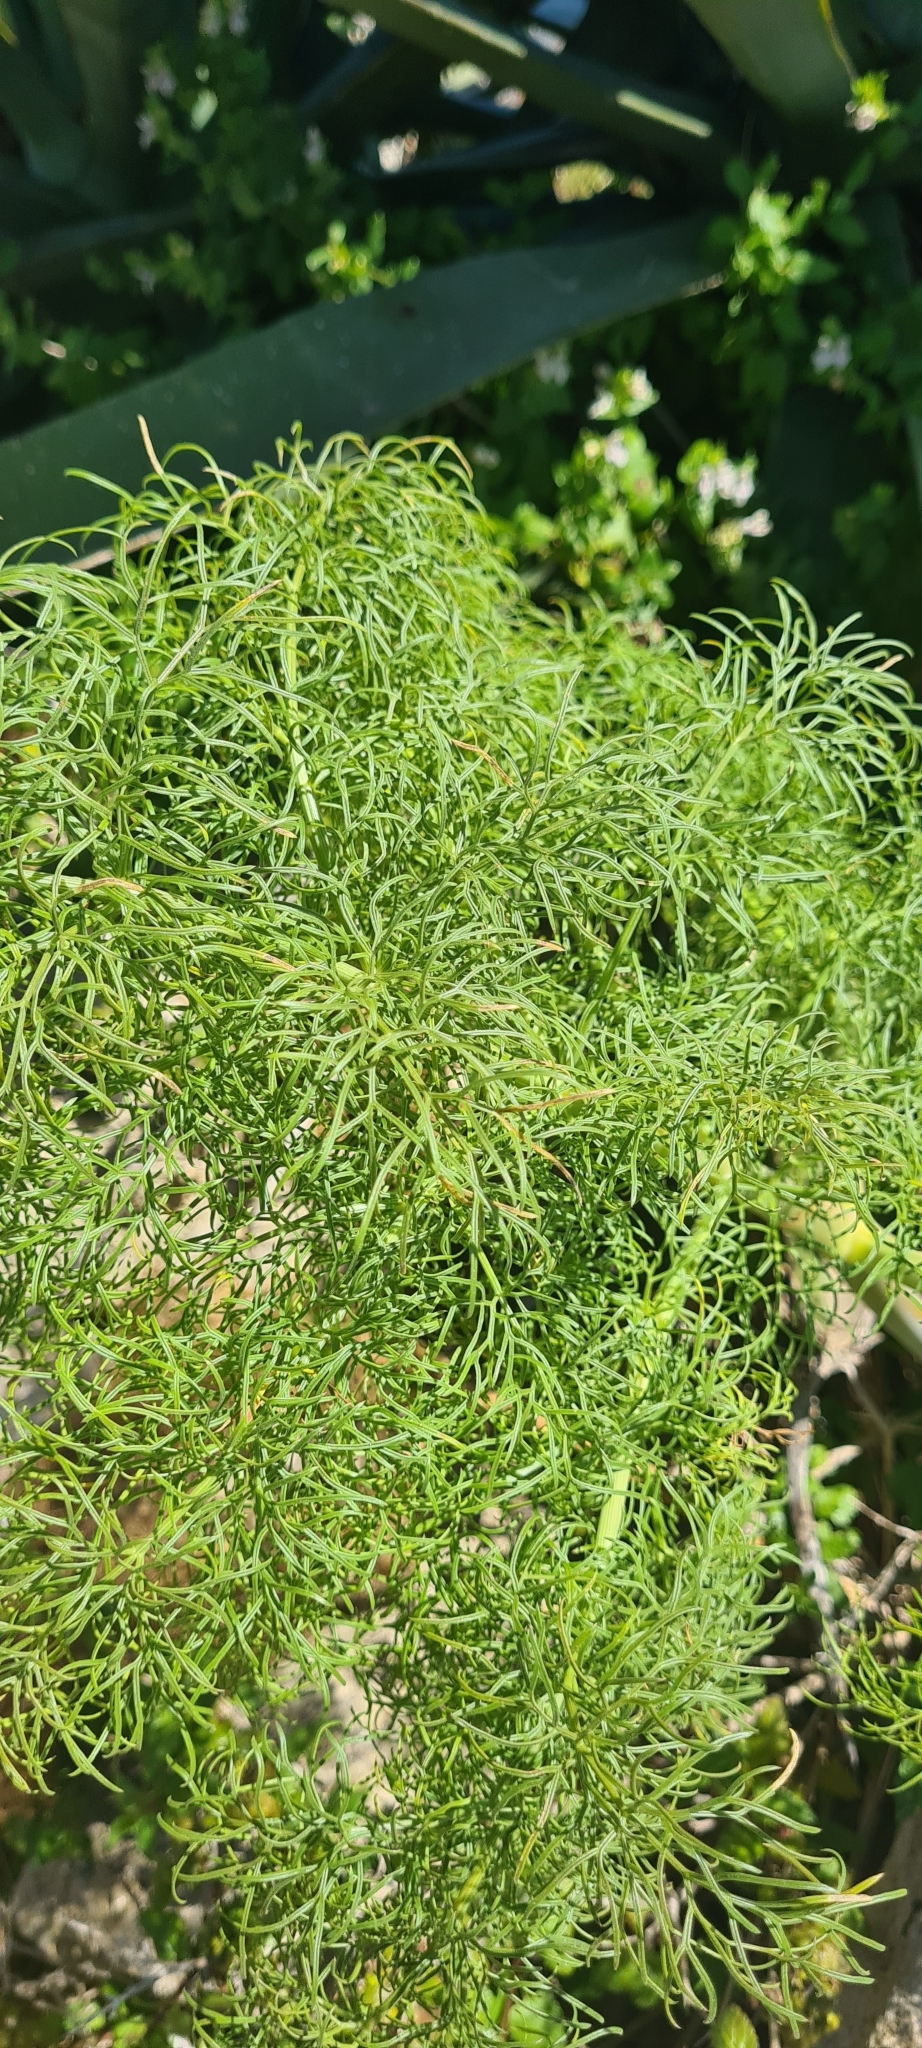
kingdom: Plantae
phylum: Tracheophyta
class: Magnoliopsida
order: Apiales
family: Apiaceae
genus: Ferula
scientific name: Ferula communis
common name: Giant fennel
